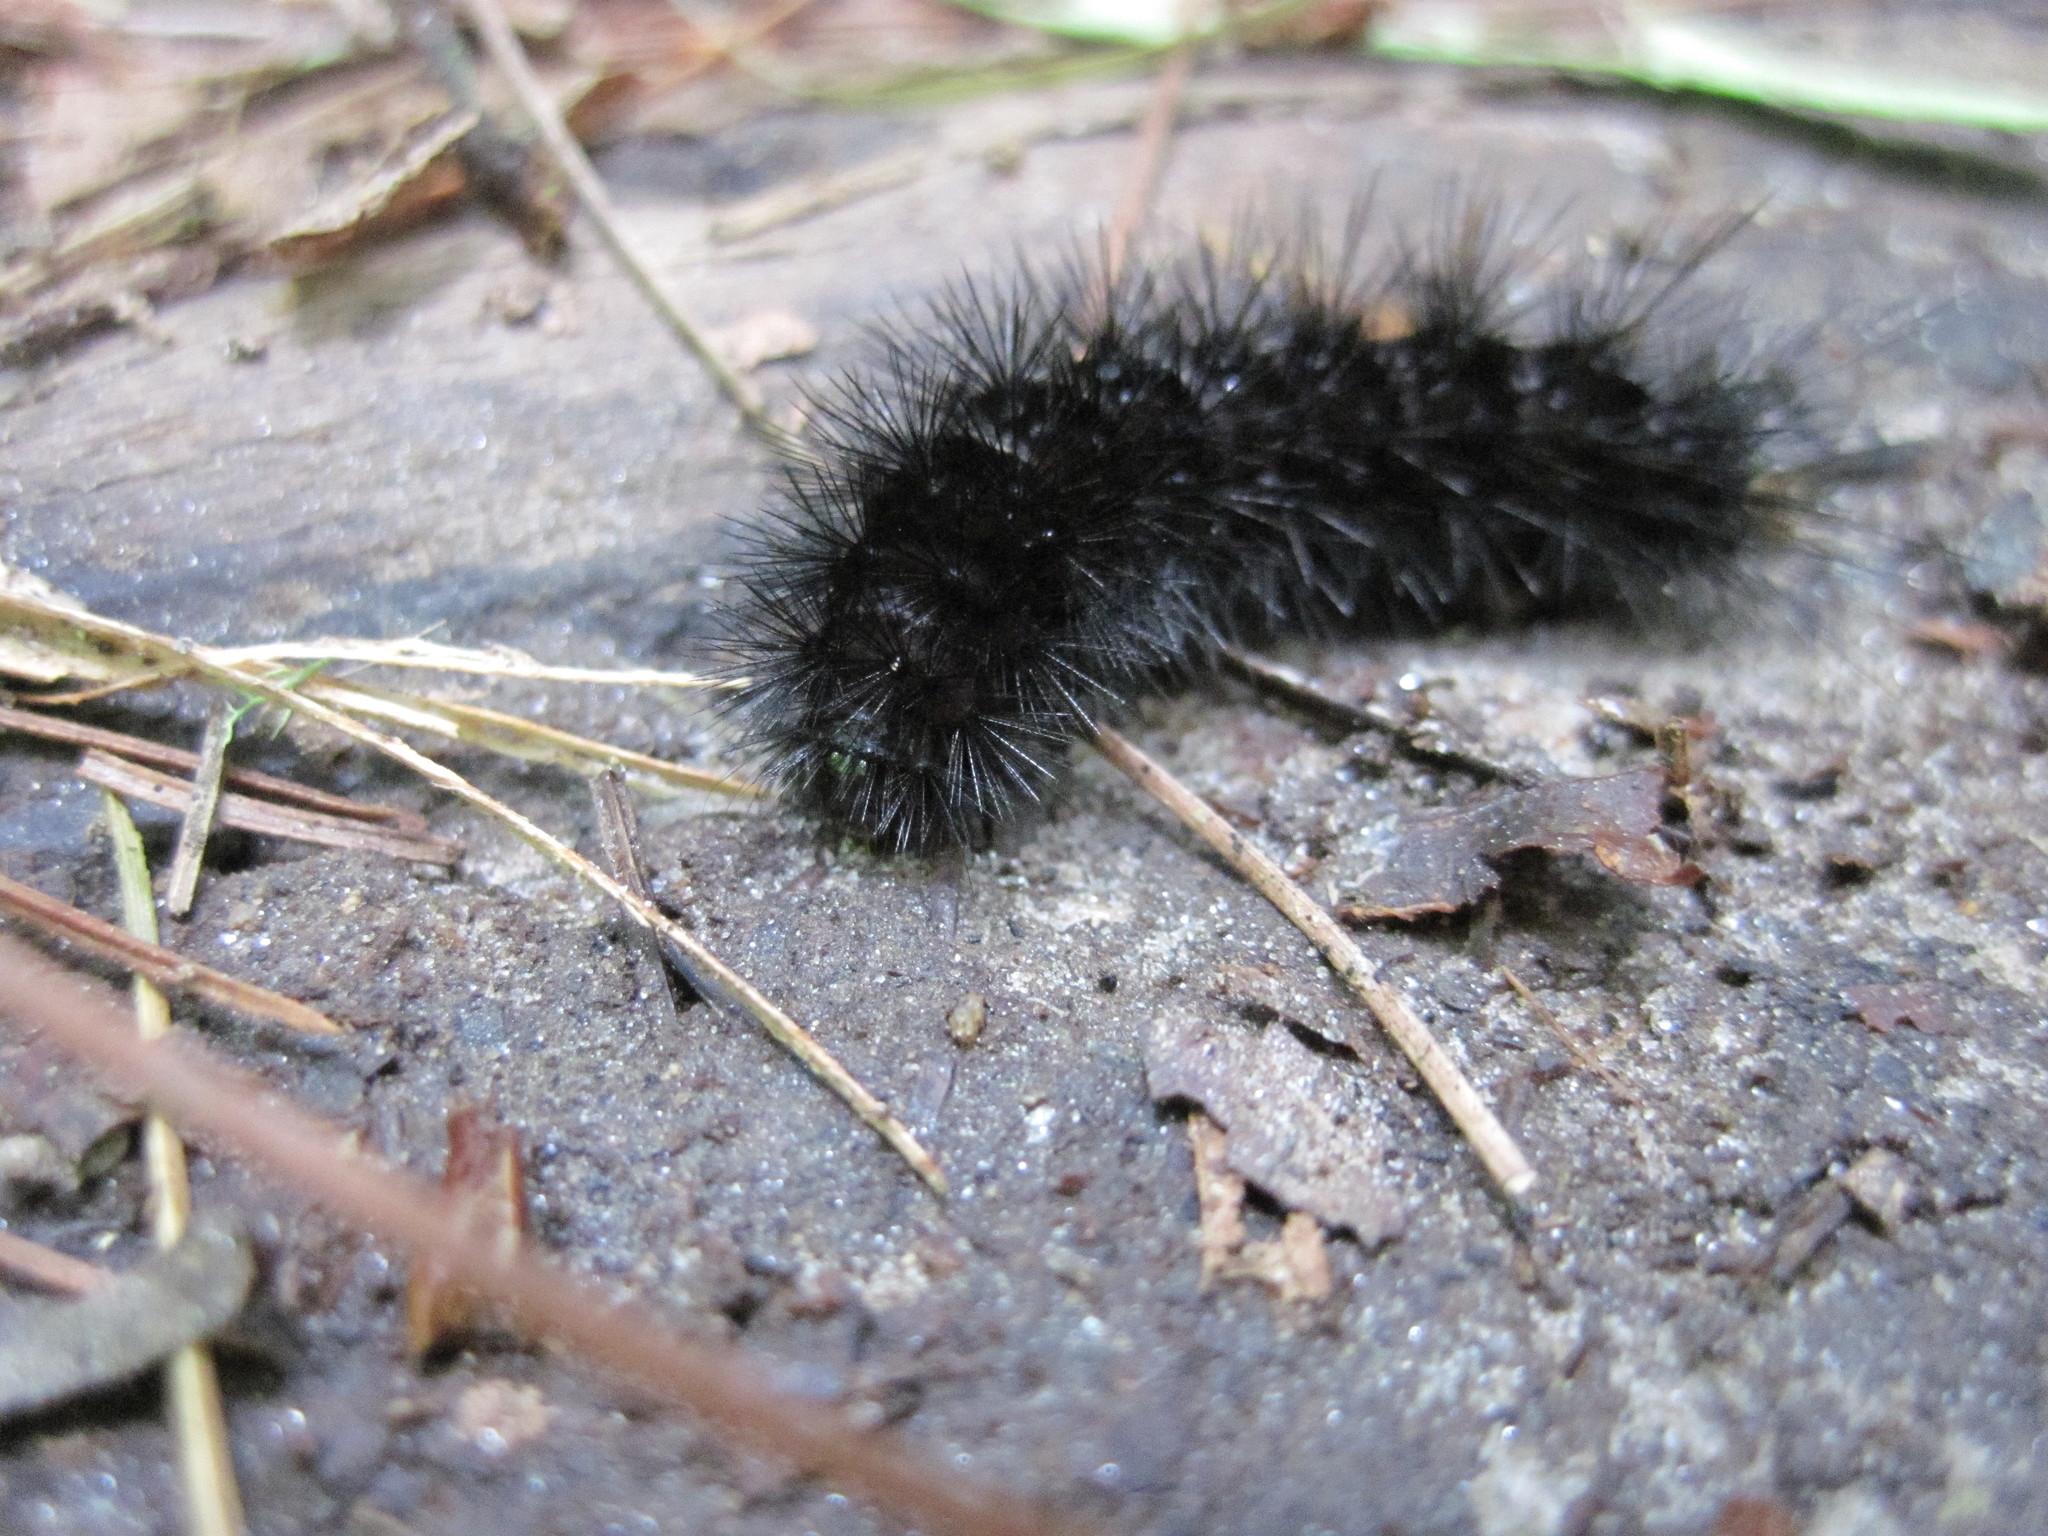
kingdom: Animalia
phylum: Arthropoda
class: Insecta
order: Lepidoptera
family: Erebidae
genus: Hypercompe
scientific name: Hypercompe scribonia
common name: Giant leopard moth
